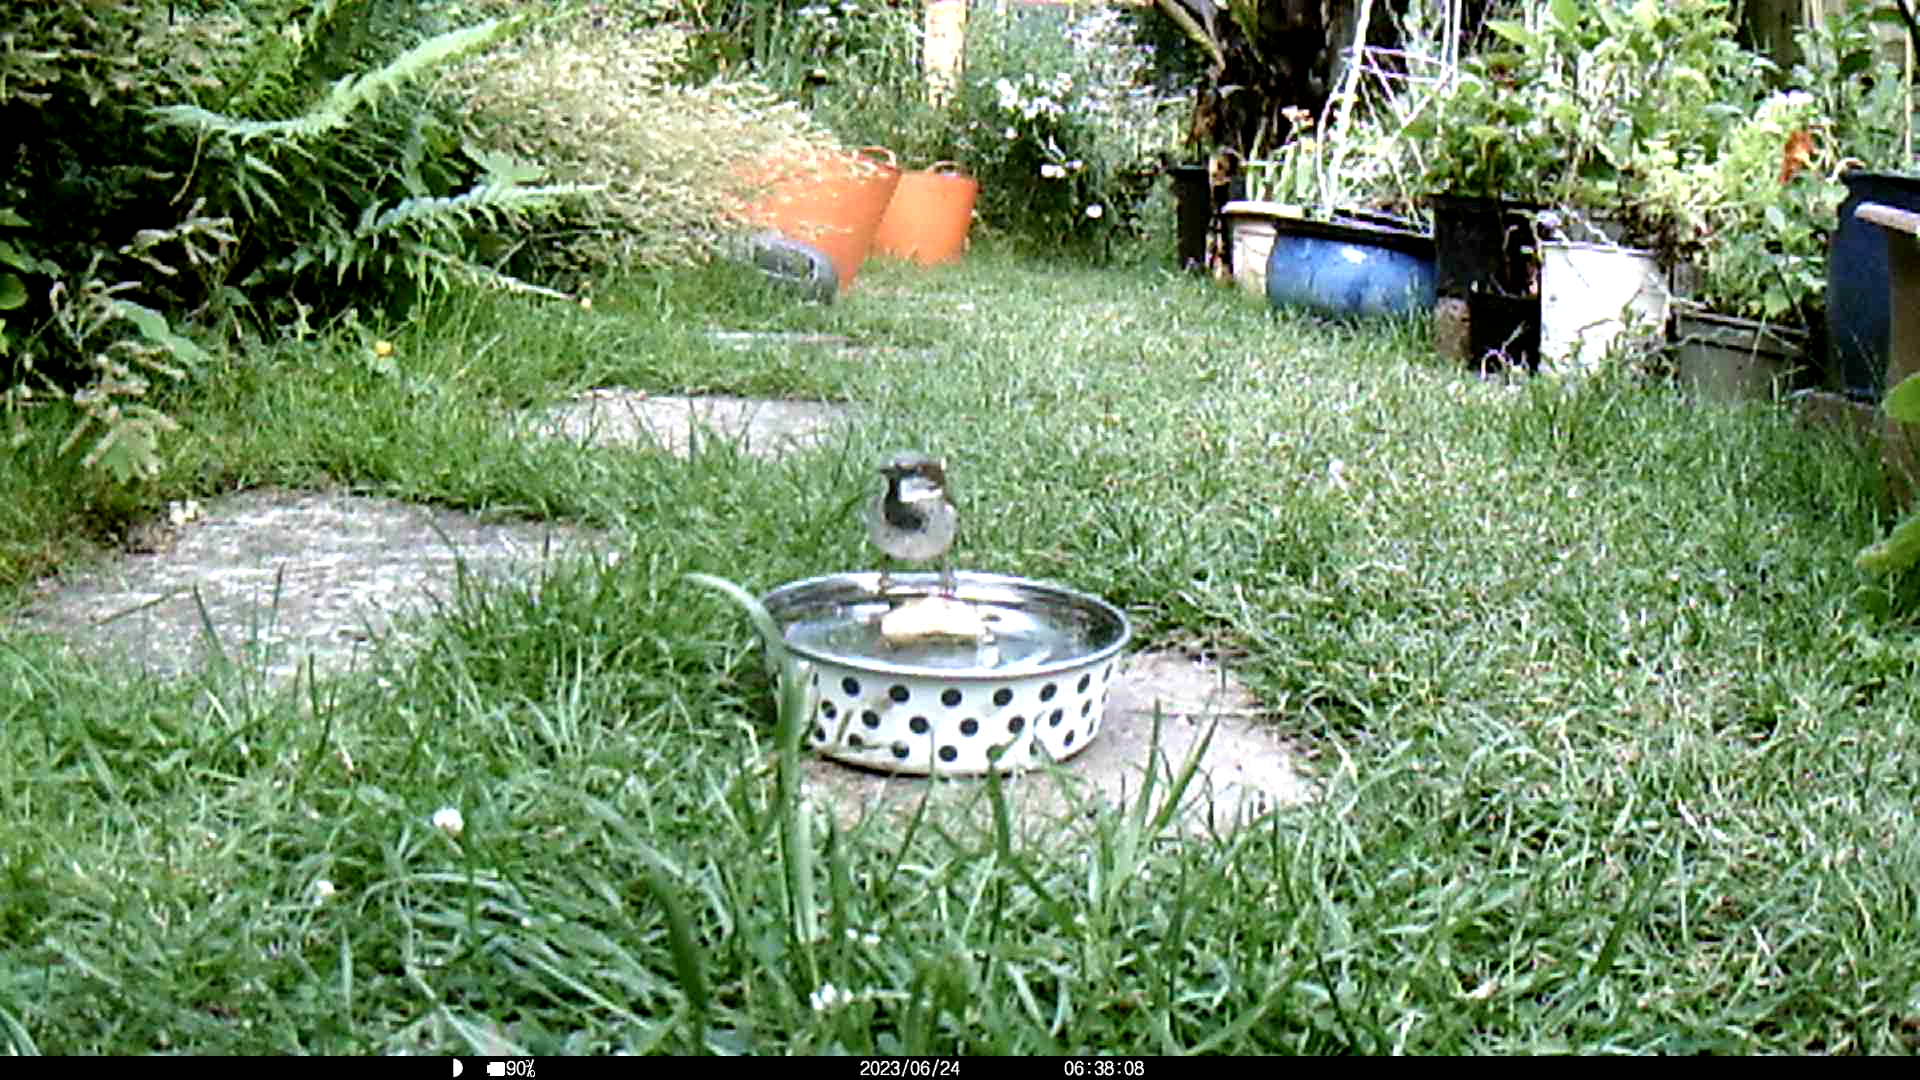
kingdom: Animalia
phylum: Chordata
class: Aves
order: Passeriformes
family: Passeridae
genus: Passer
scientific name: Passer domesticus
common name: House sparrow
